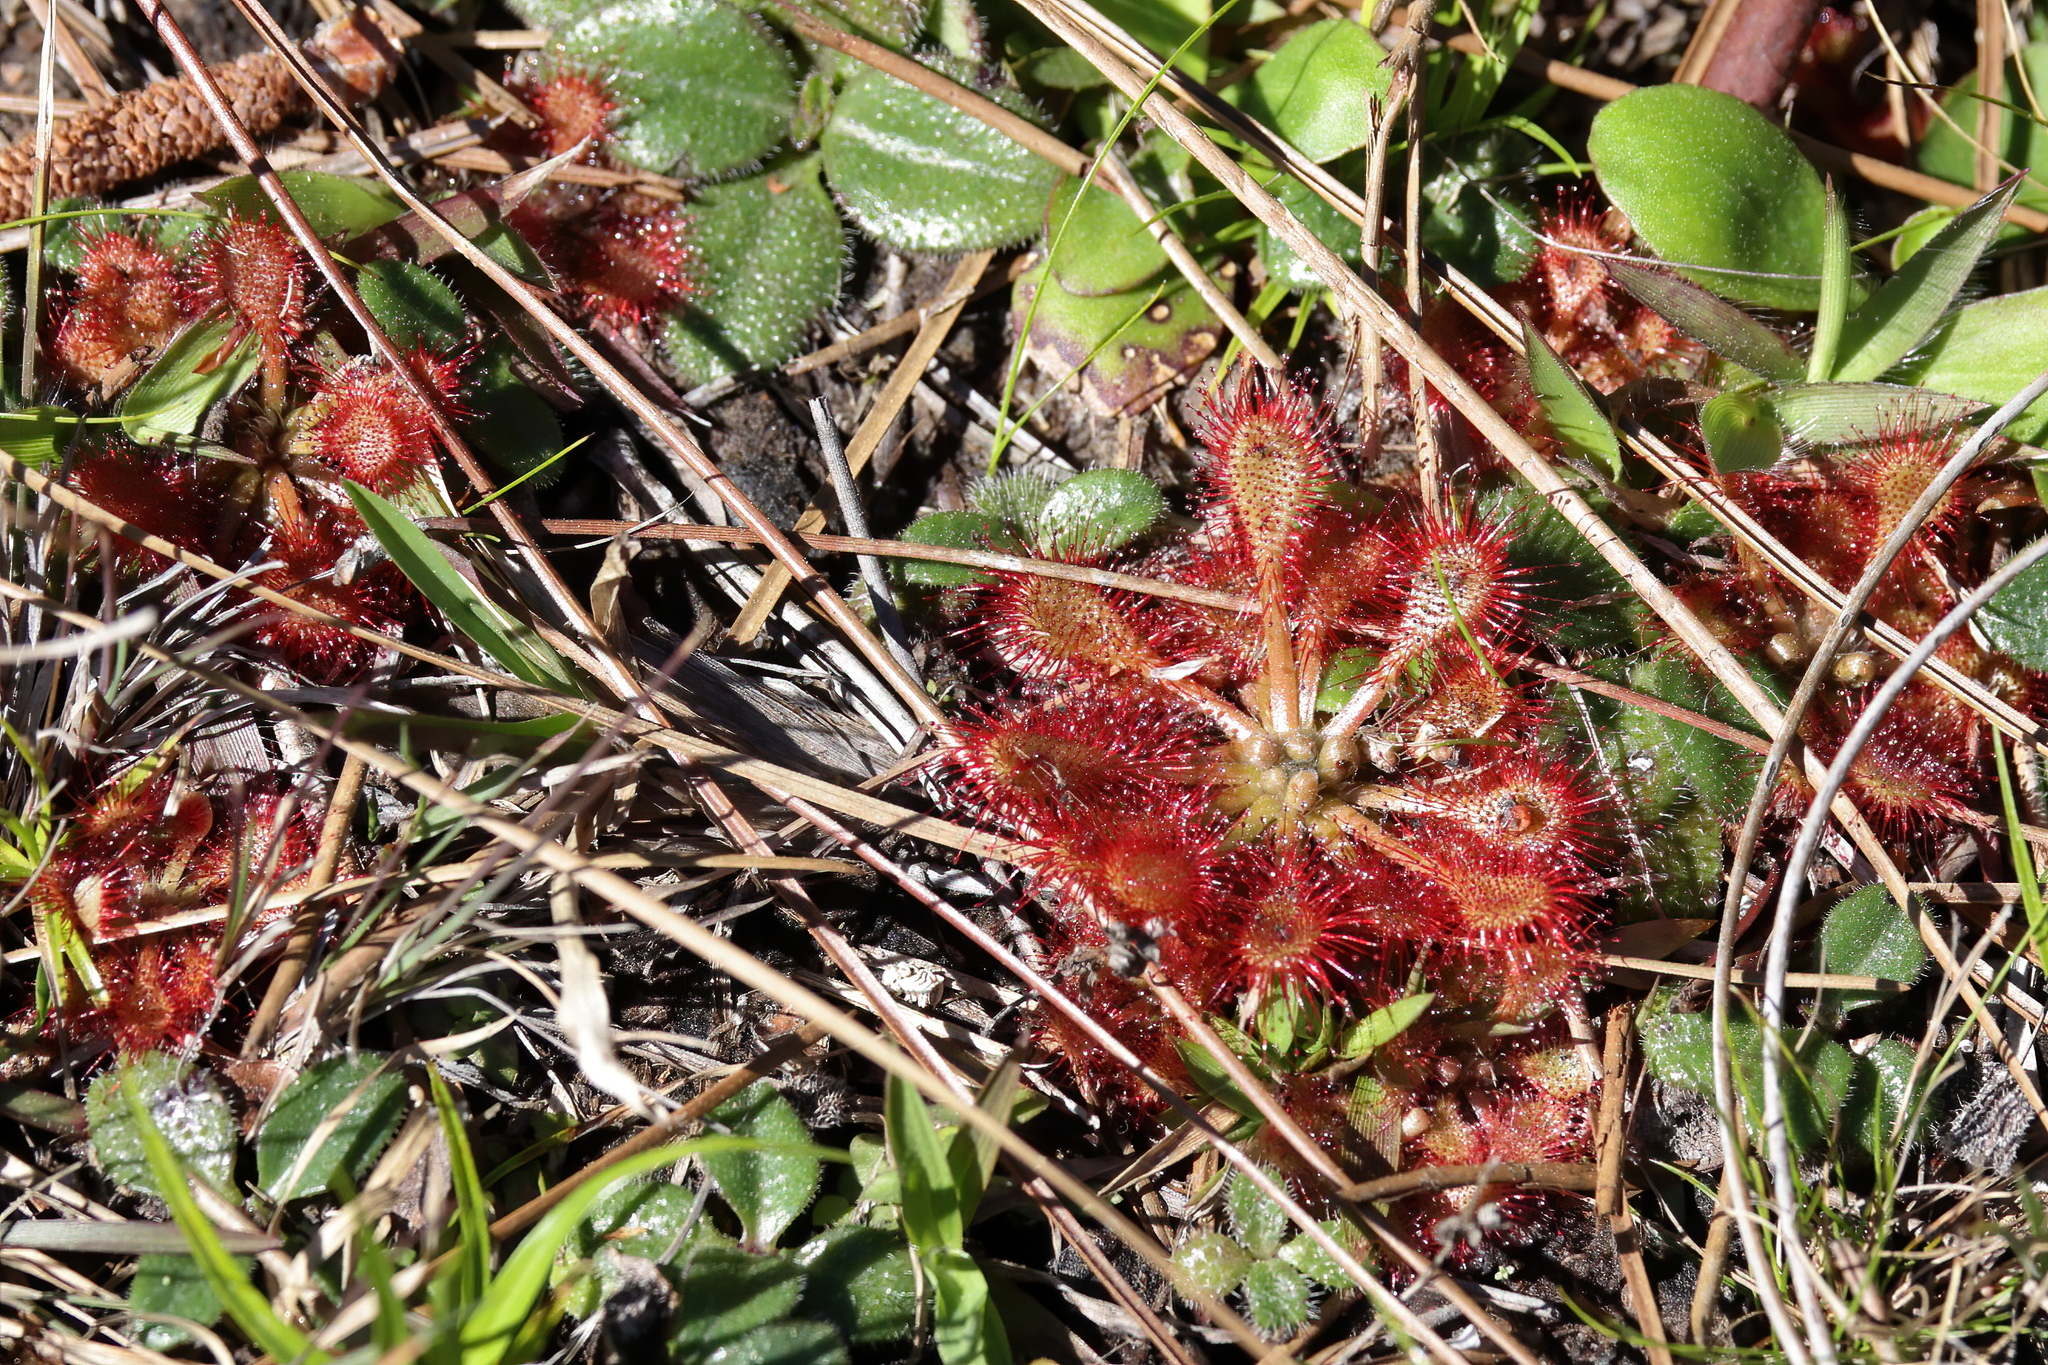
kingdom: Plantae
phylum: Tracheophyta
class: Magnoliopsida
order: Caryophyllales
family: Droseraceae
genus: Drosera
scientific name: Drosera capillaris
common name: Pink sundew
